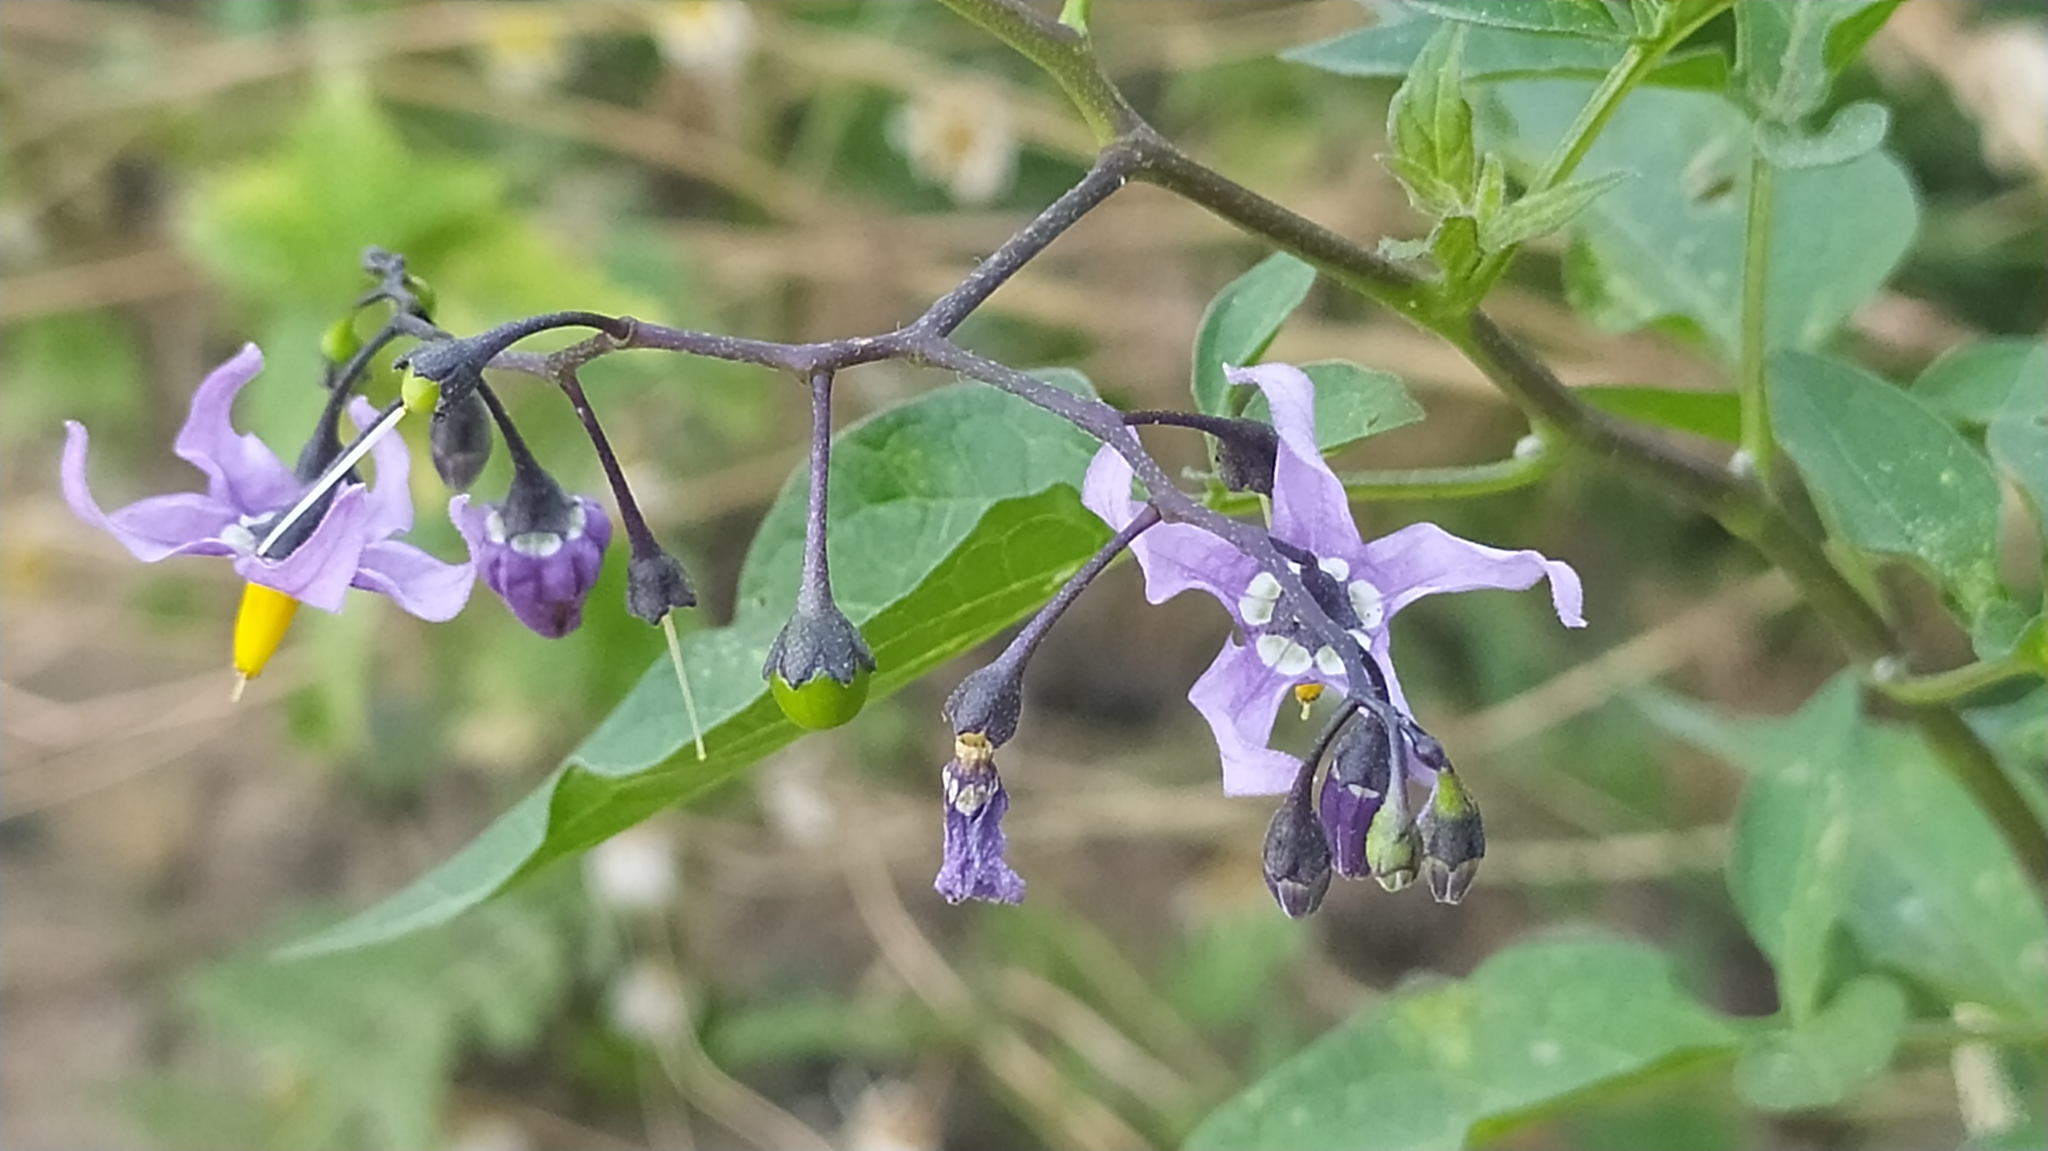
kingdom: Plantae
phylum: Tracheophyta
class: Magnoliopsida
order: Solanales
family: Solanaceae
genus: Solanum
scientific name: Solanum dulcamara
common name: Climbing nightshade
